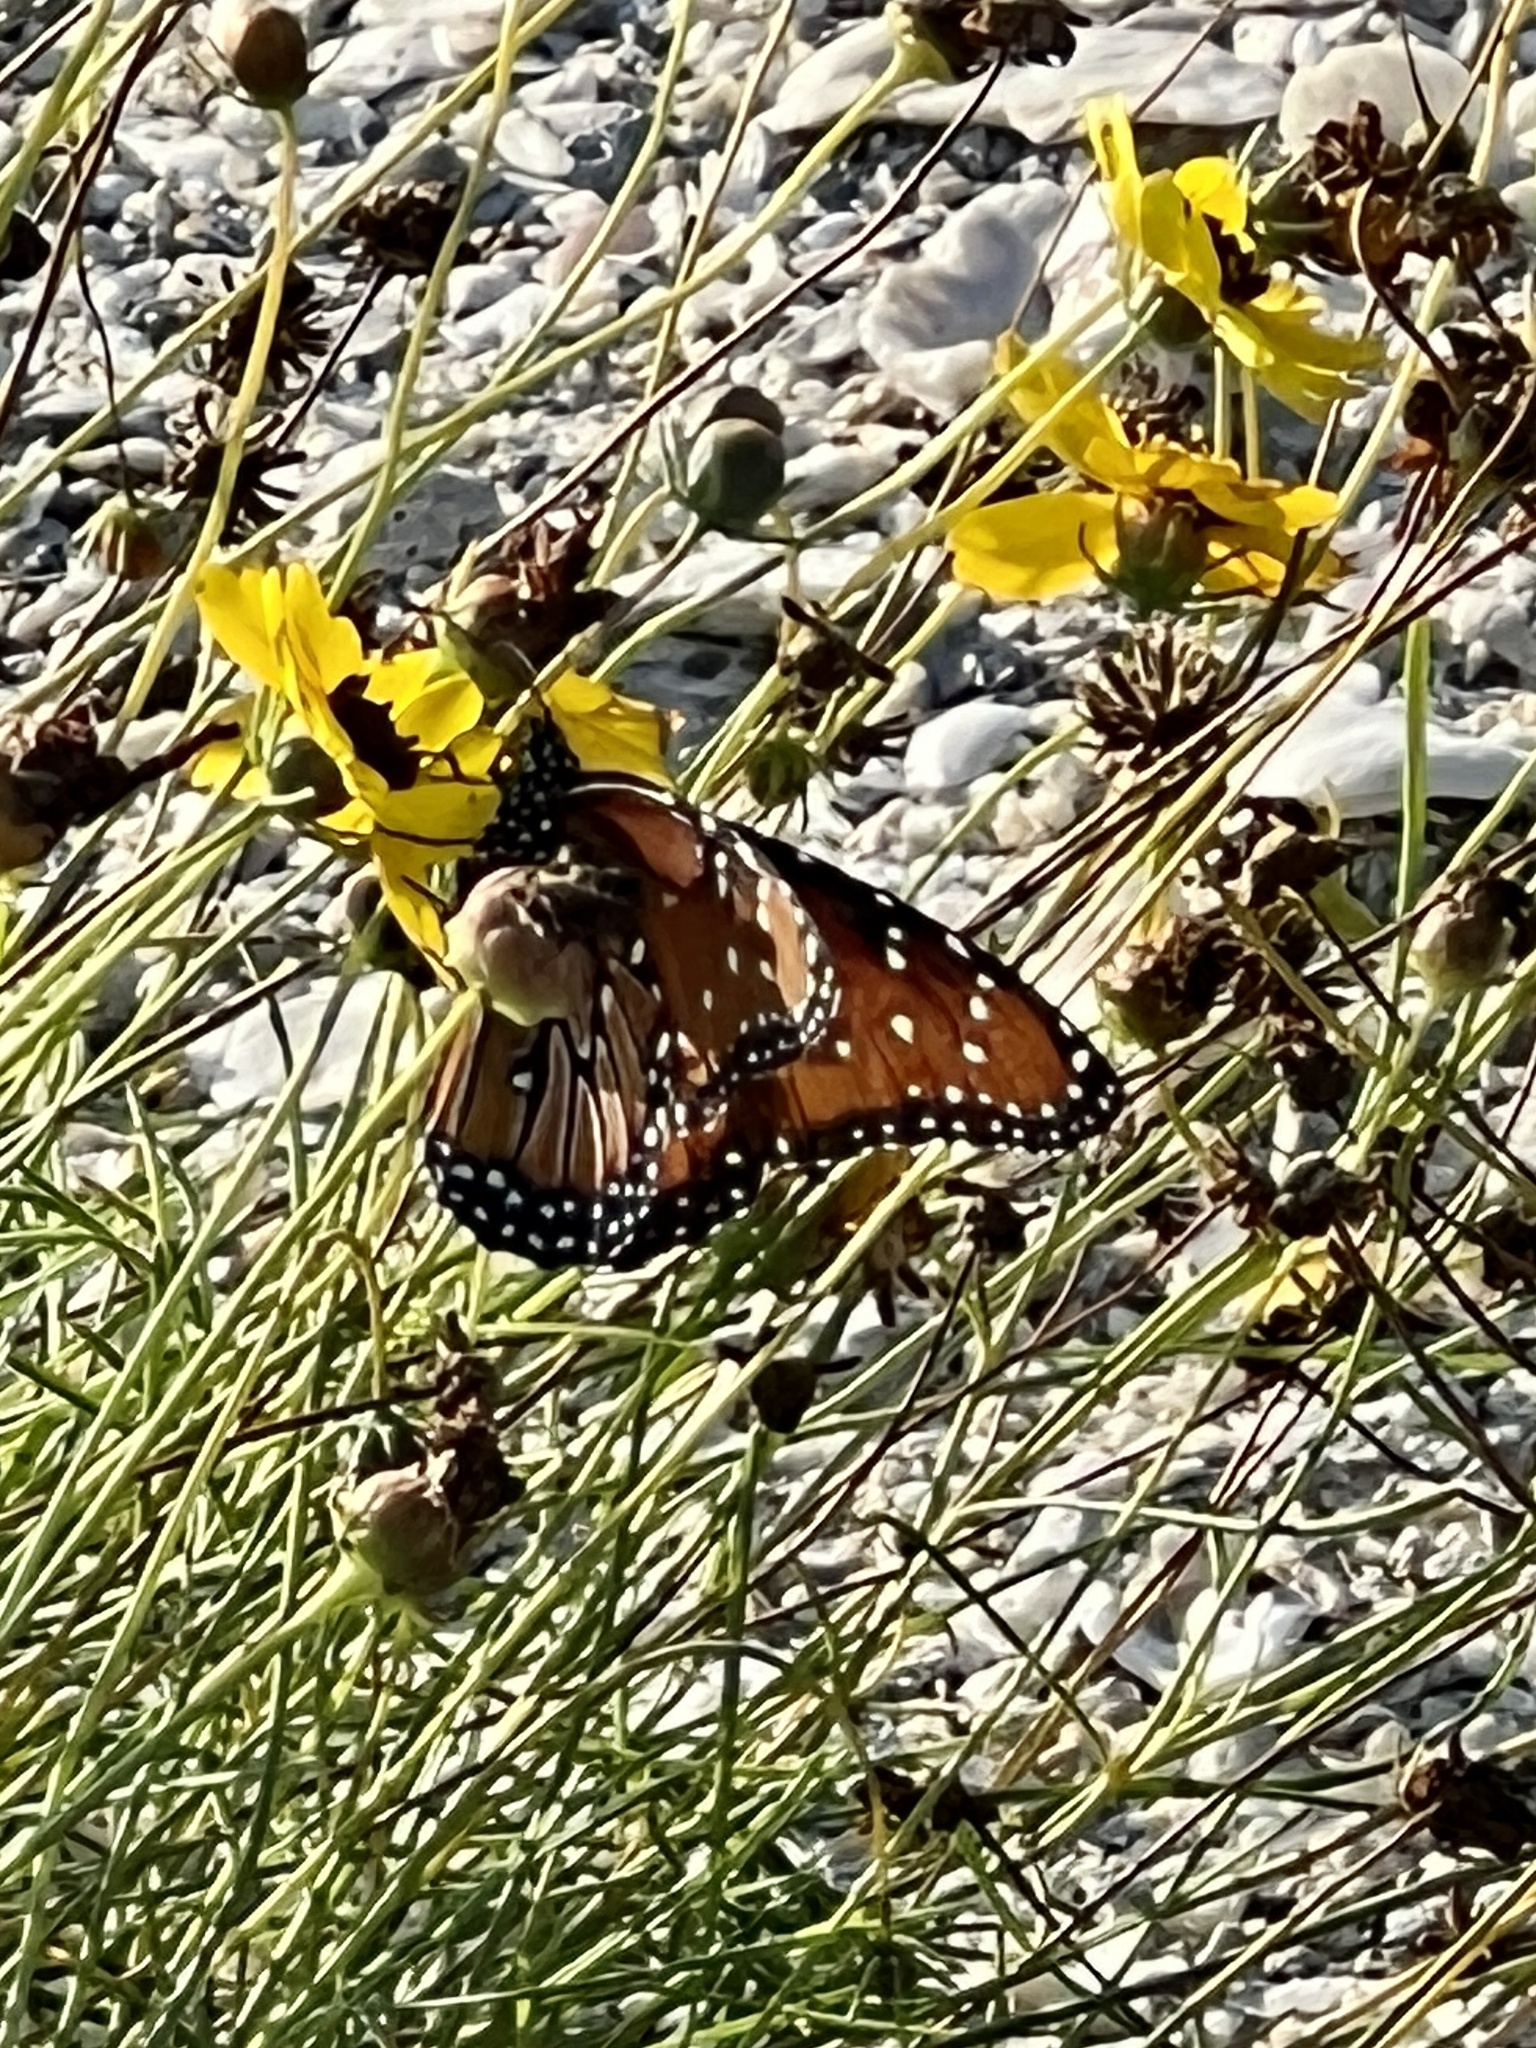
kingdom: Animalia
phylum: Arthropoda
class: Insecta
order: Lepidoptera
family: Nymphalidae
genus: Danaus
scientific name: Danaus gilippus
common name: Queen
